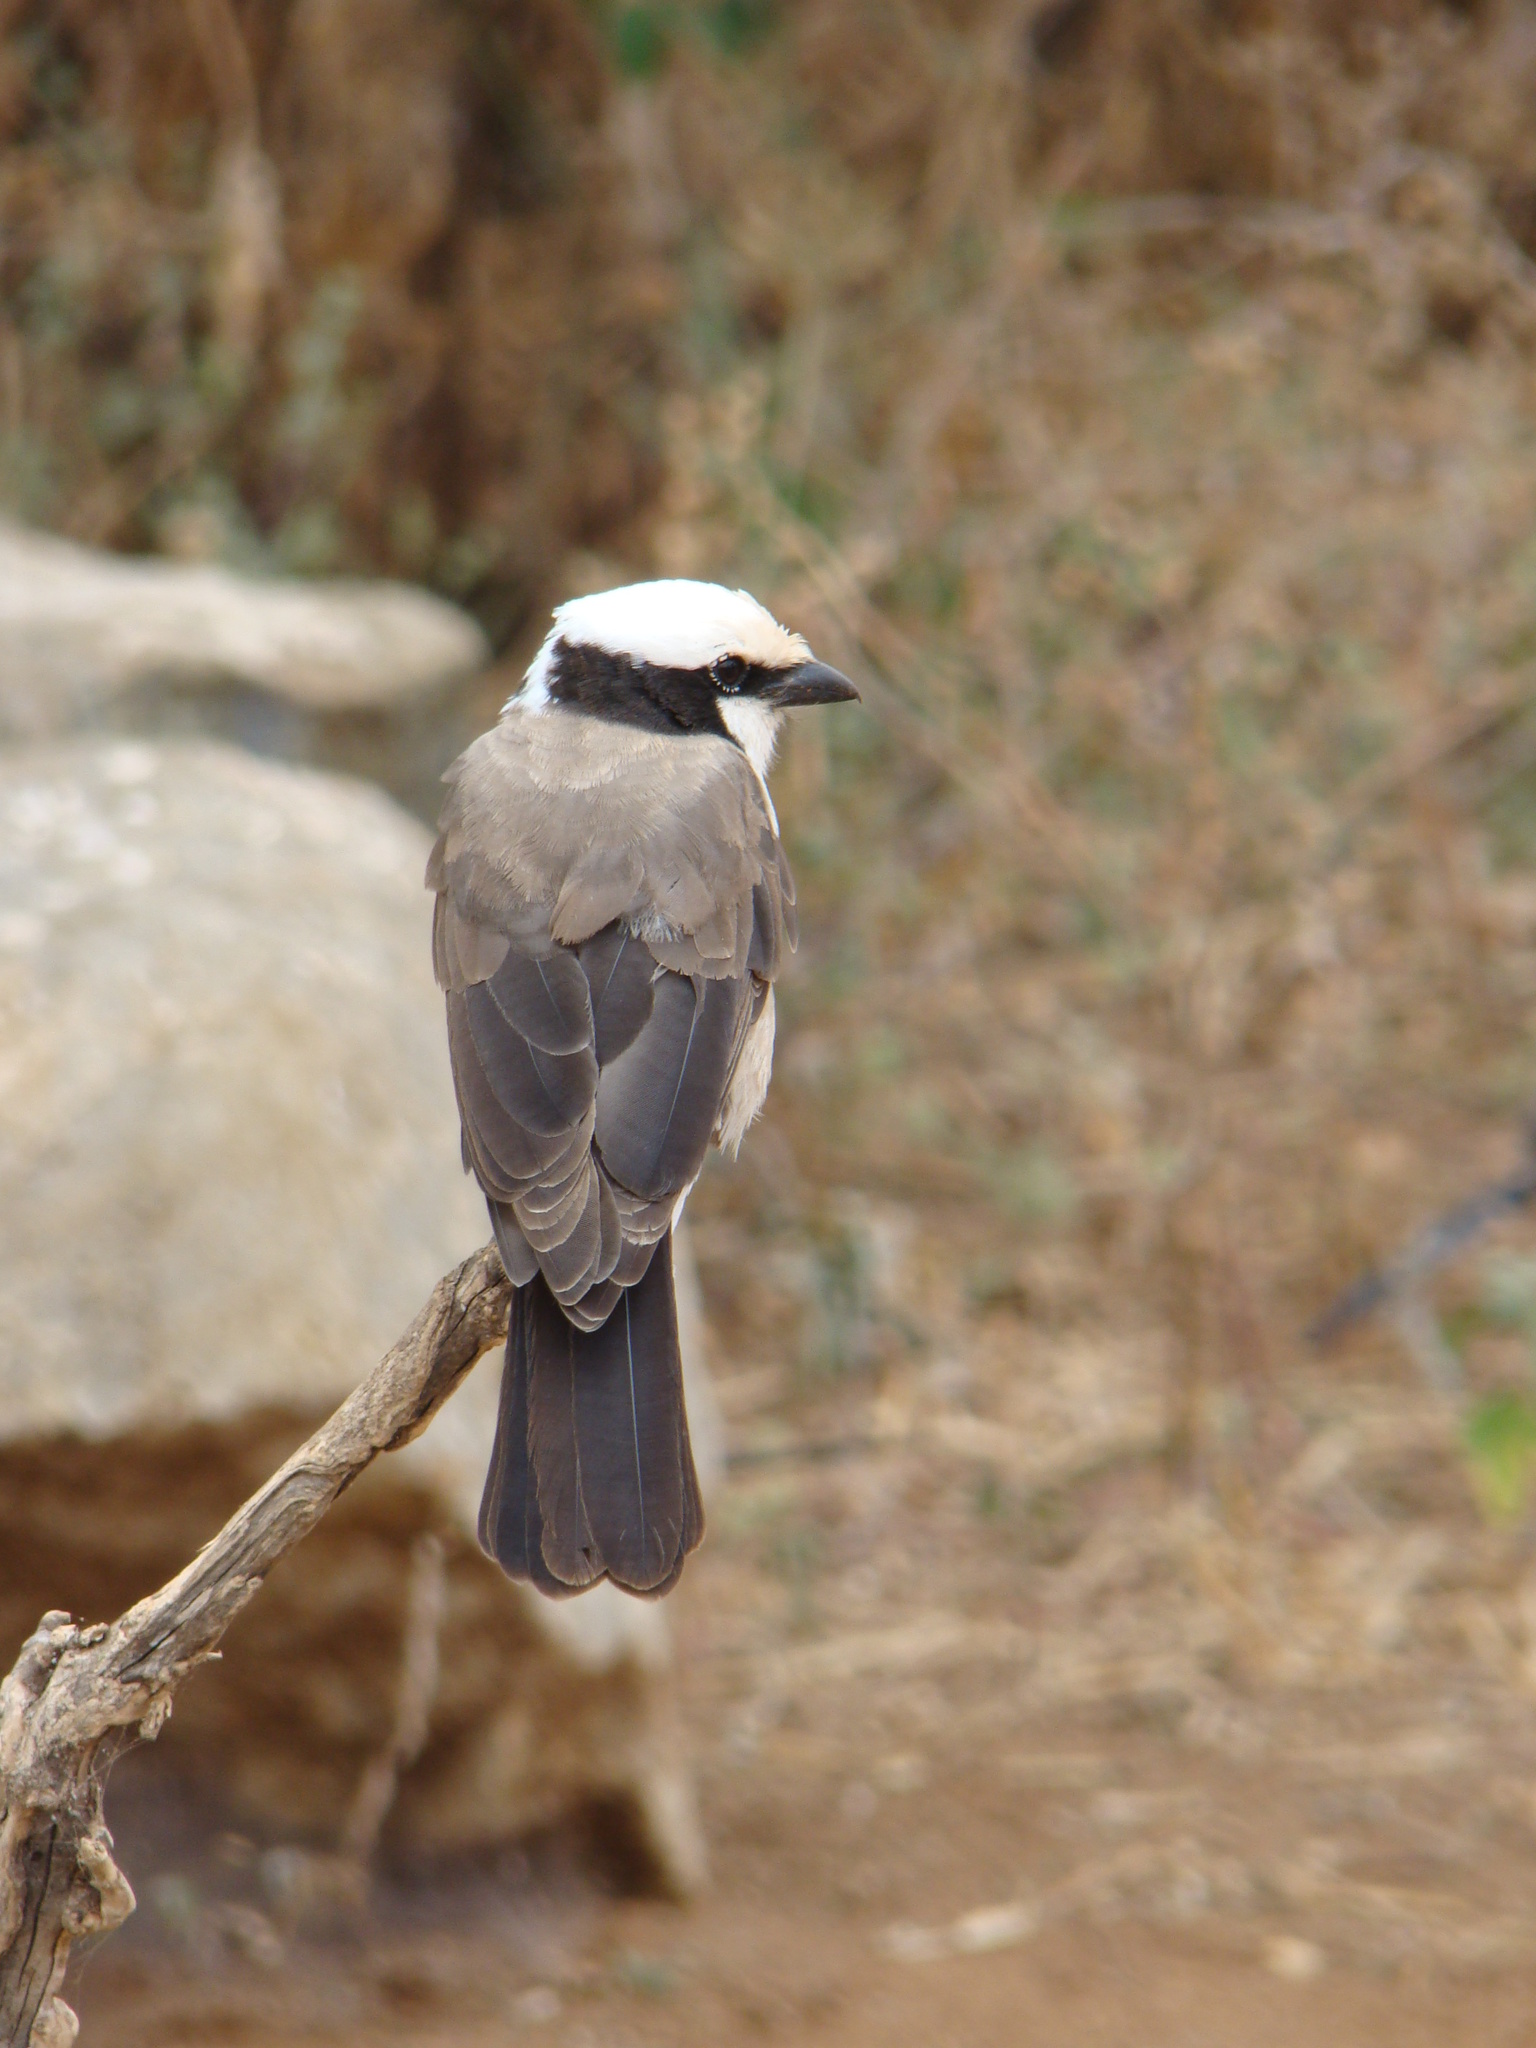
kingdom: Animalia
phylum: Chordata
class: Aves
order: Passeriformes
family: Laniidae
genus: Eurocephalus
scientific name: Eurocephalus ruppelli
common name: Northern white-crowned shrike
